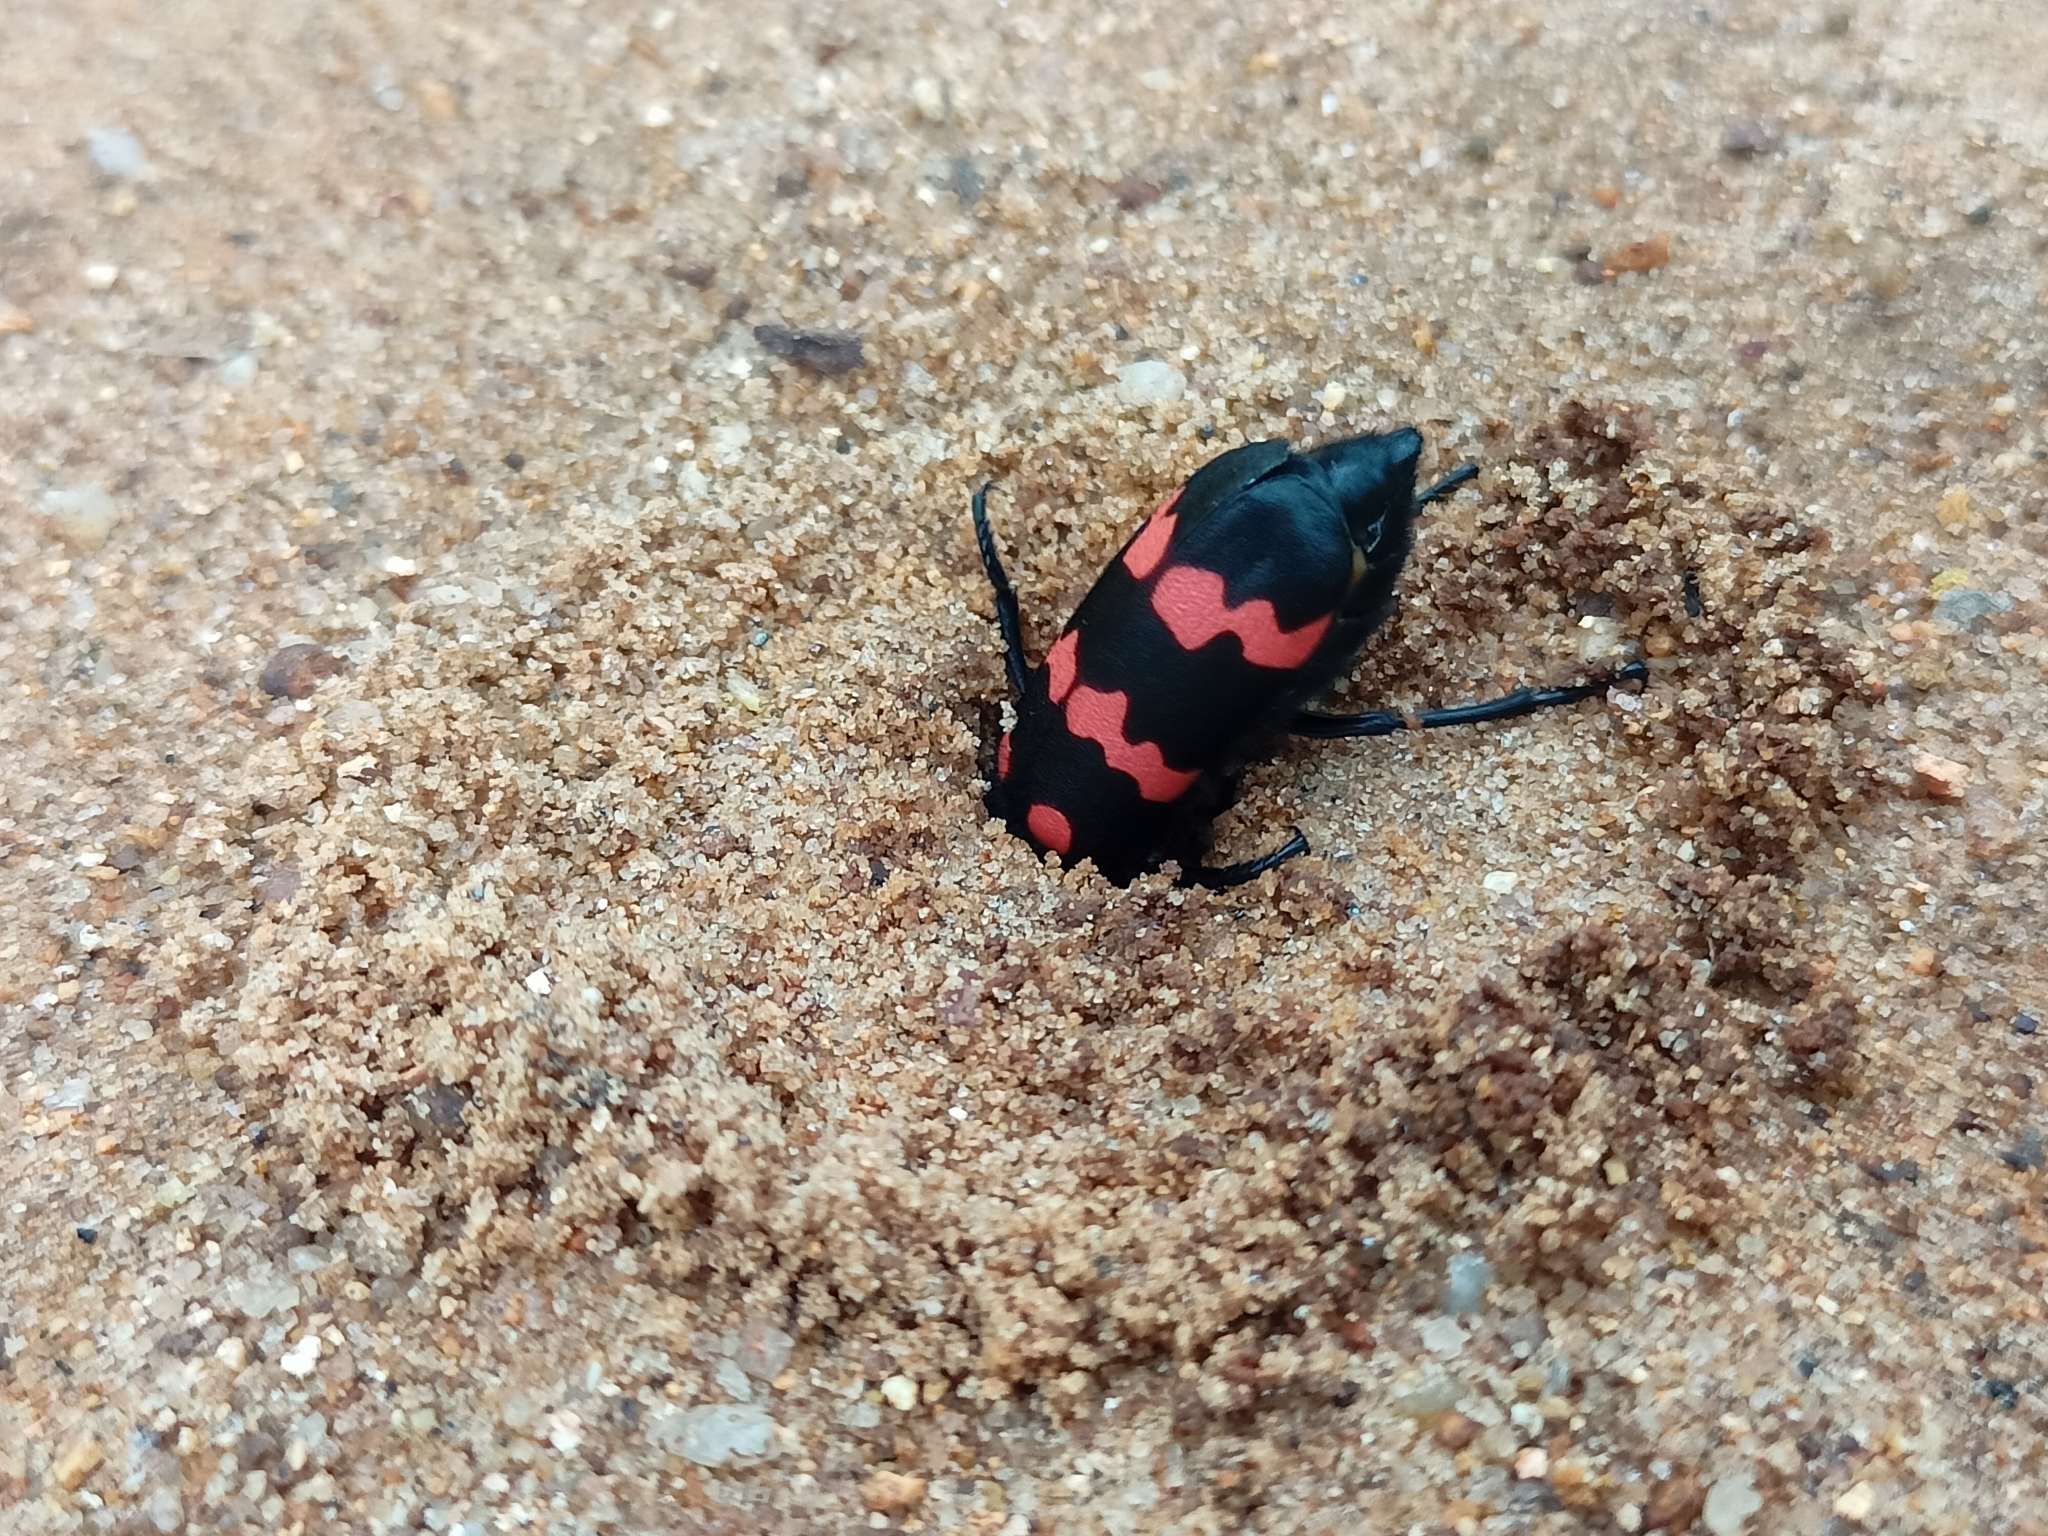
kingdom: Animalia
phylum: Arthropoda
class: Insecta
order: Coleoptera
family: Meloidae
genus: Hycleus
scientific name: Hycleus biundulatus
